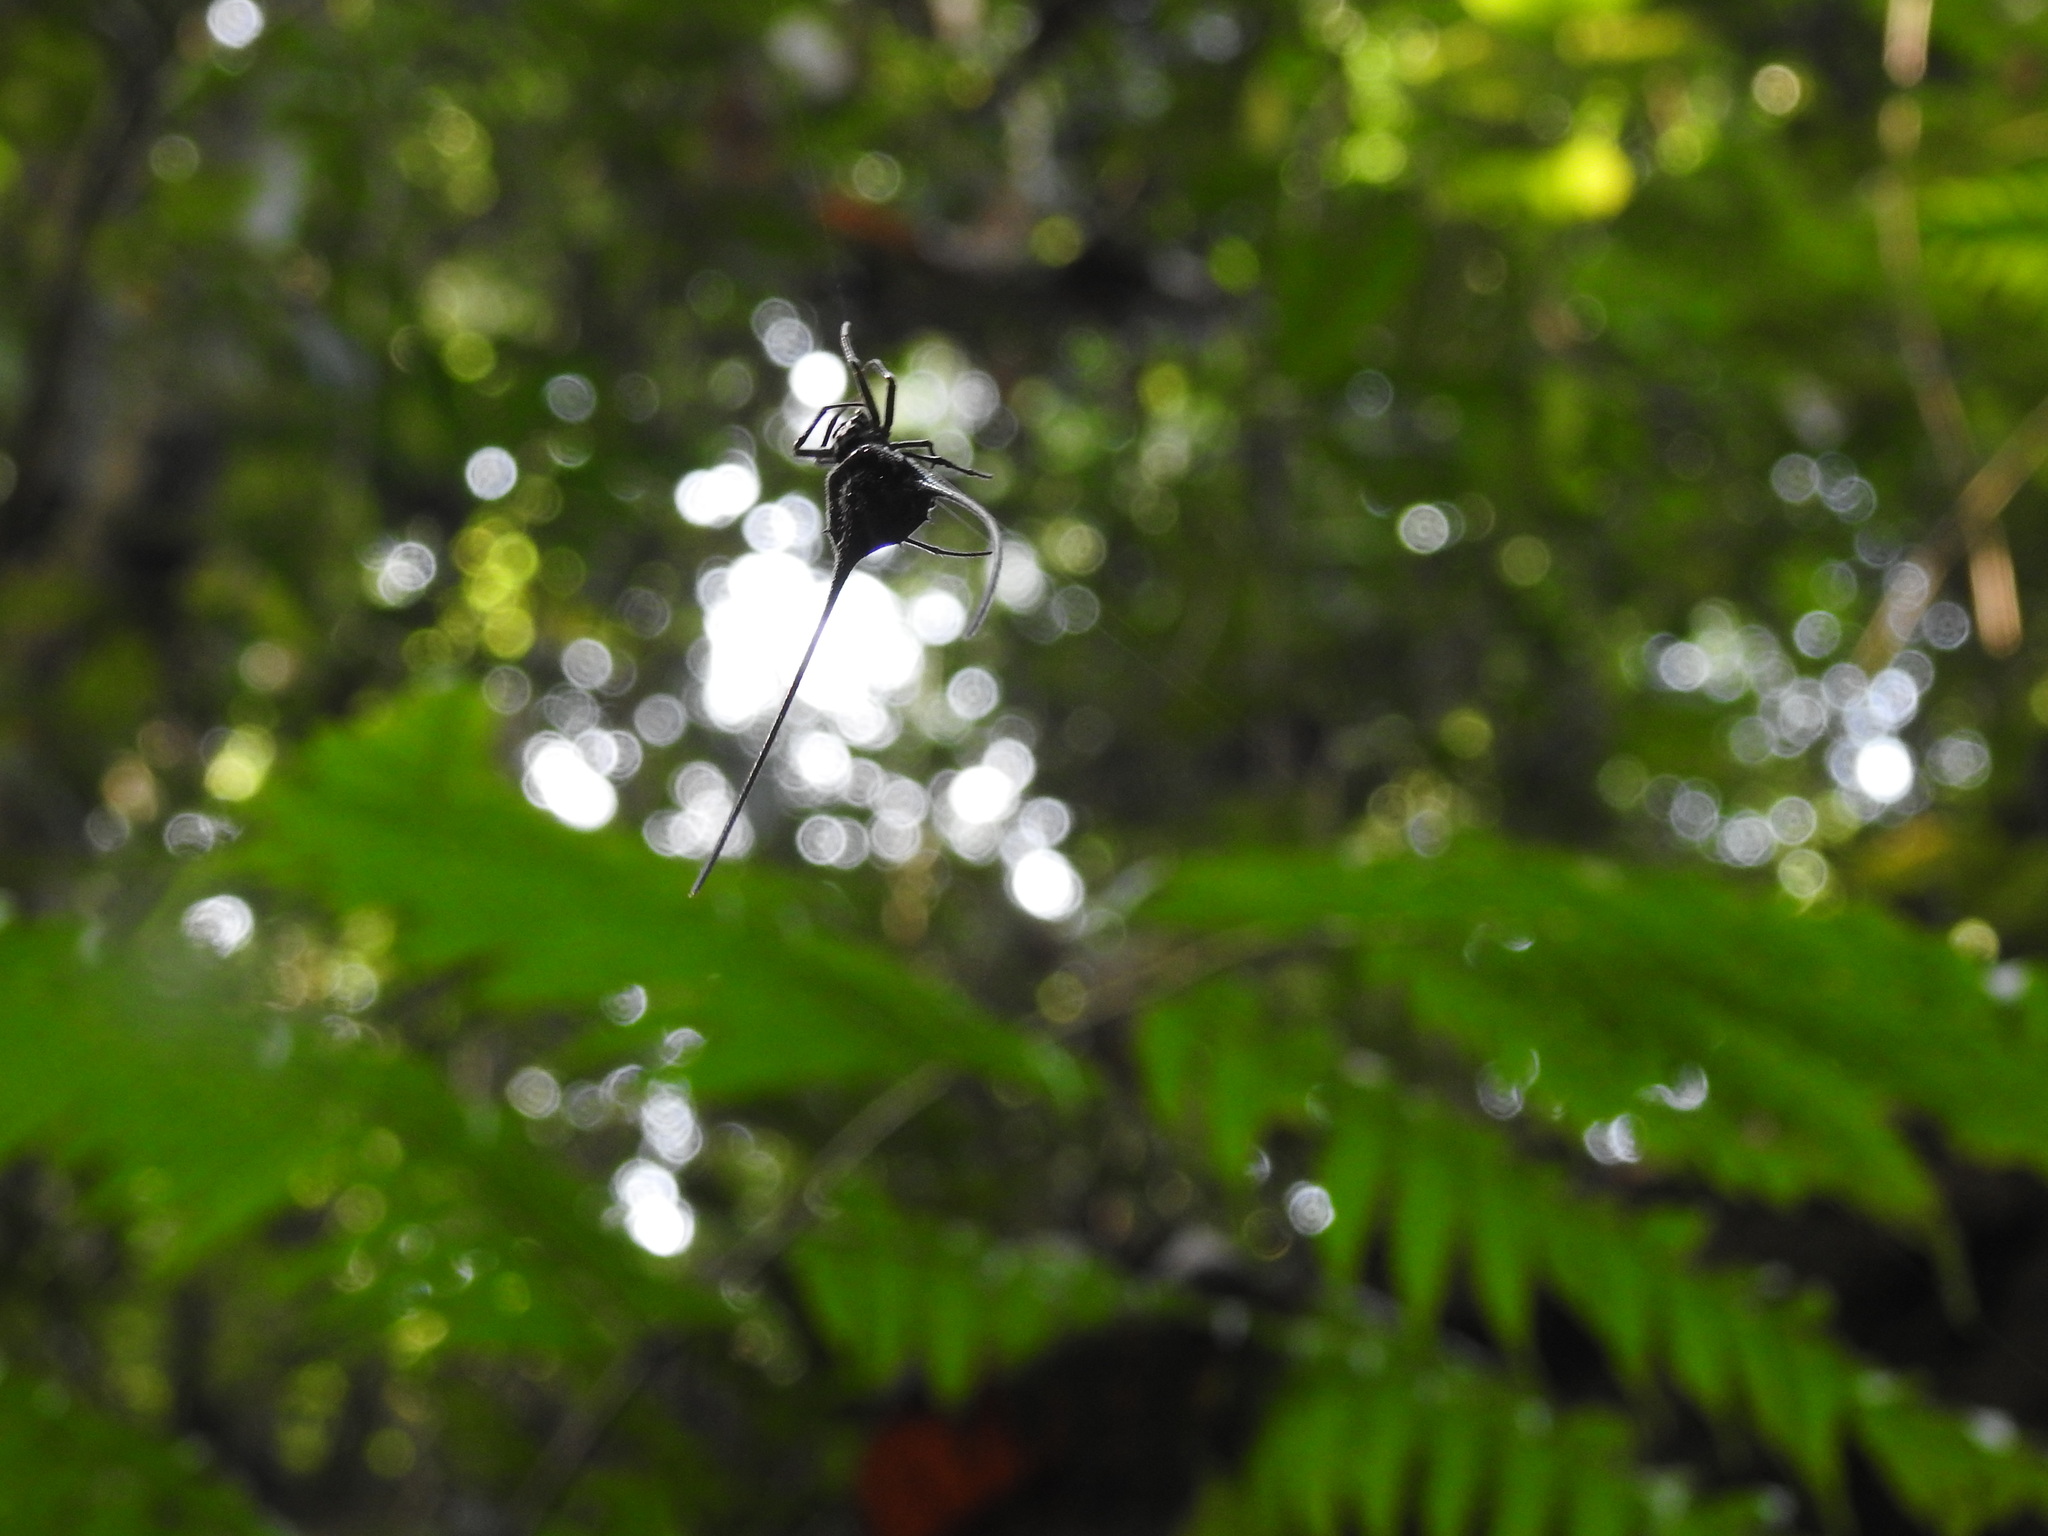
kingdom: Animalia
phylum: Arthropoda
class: Arachnida
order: Araneae
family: Araneidae
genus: Macracantha
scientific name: Macracantha arcuata
